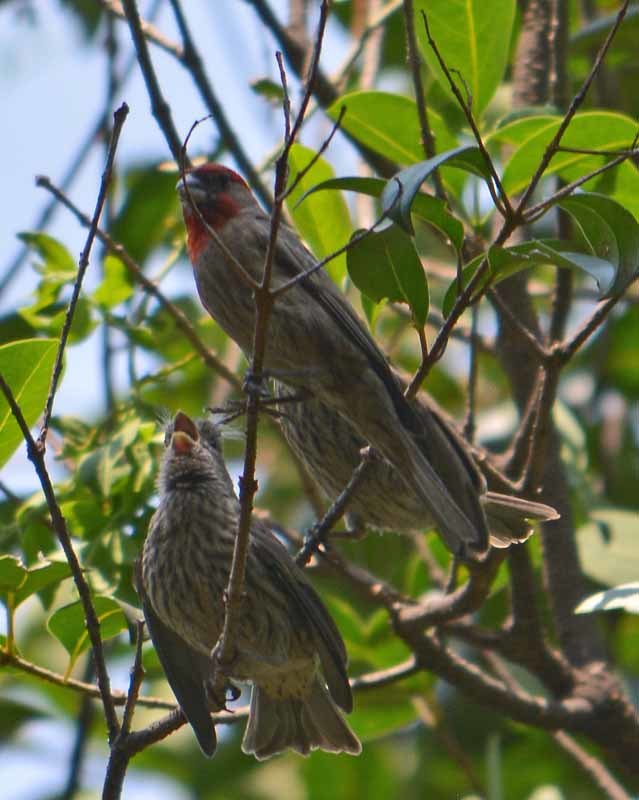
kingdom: Animalia
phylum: Chordata
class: Aves
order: Passeriformes
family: Fringillidae
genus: Haemorhous
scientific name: Haemorhous mexicanus
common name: House finch
